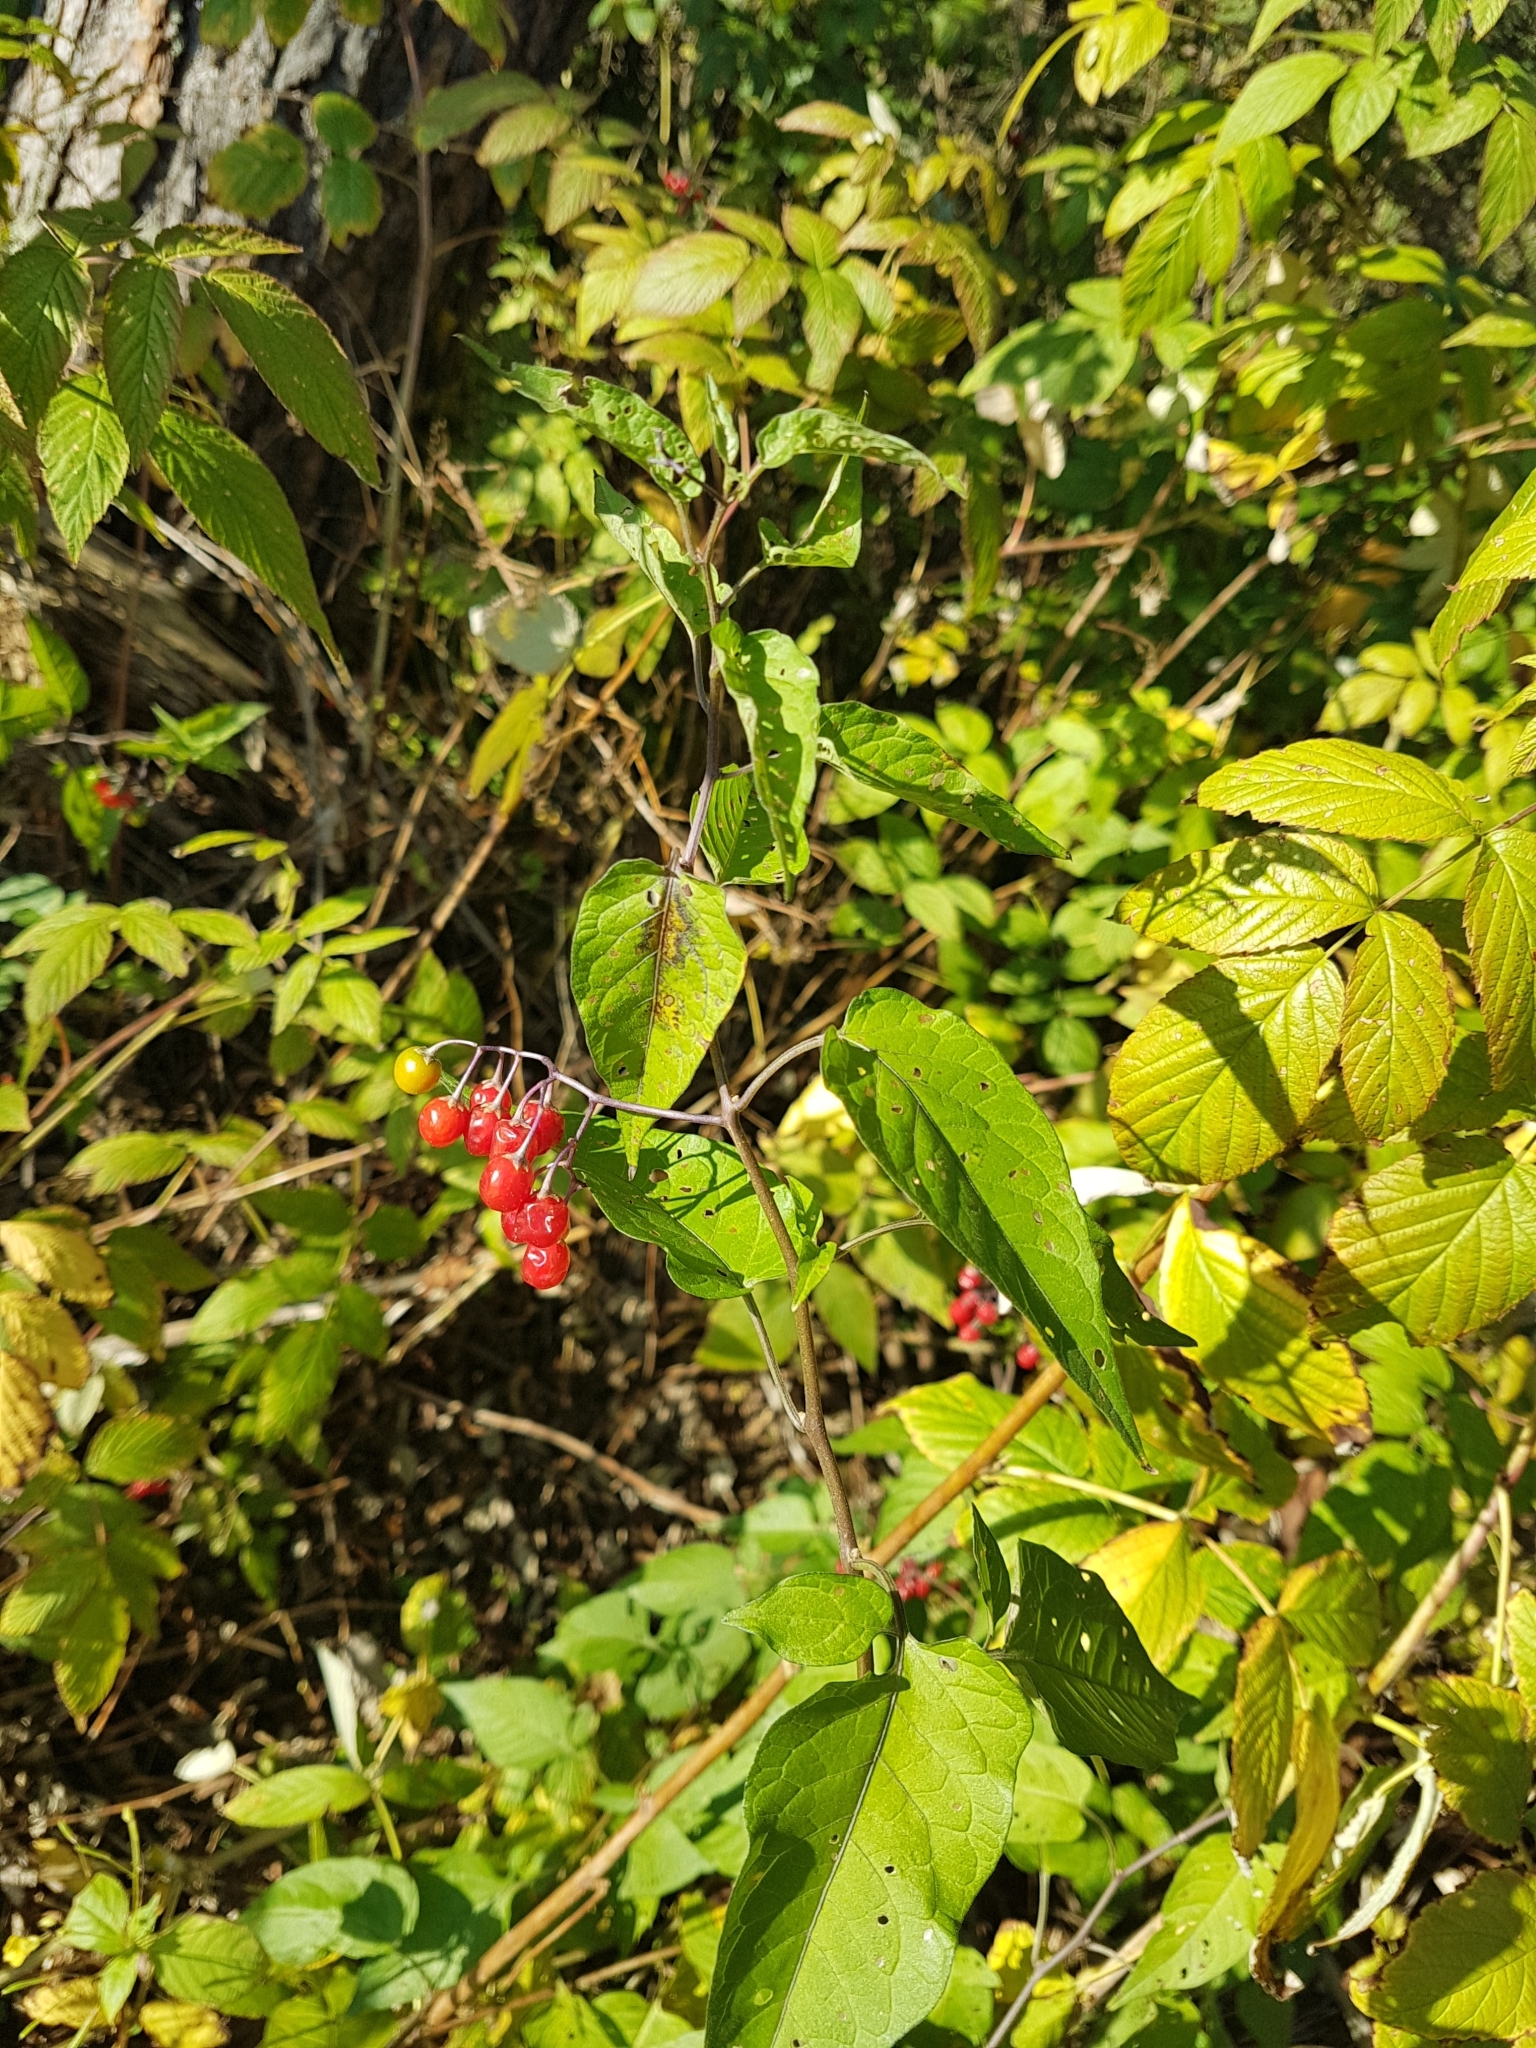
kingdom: Plantae
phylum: Tracheophyta
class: Magnoliopsida
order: Solanales
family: Solanaceae
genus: Solanum
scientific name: Solanum dulcamara
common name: Climbing nightshade
